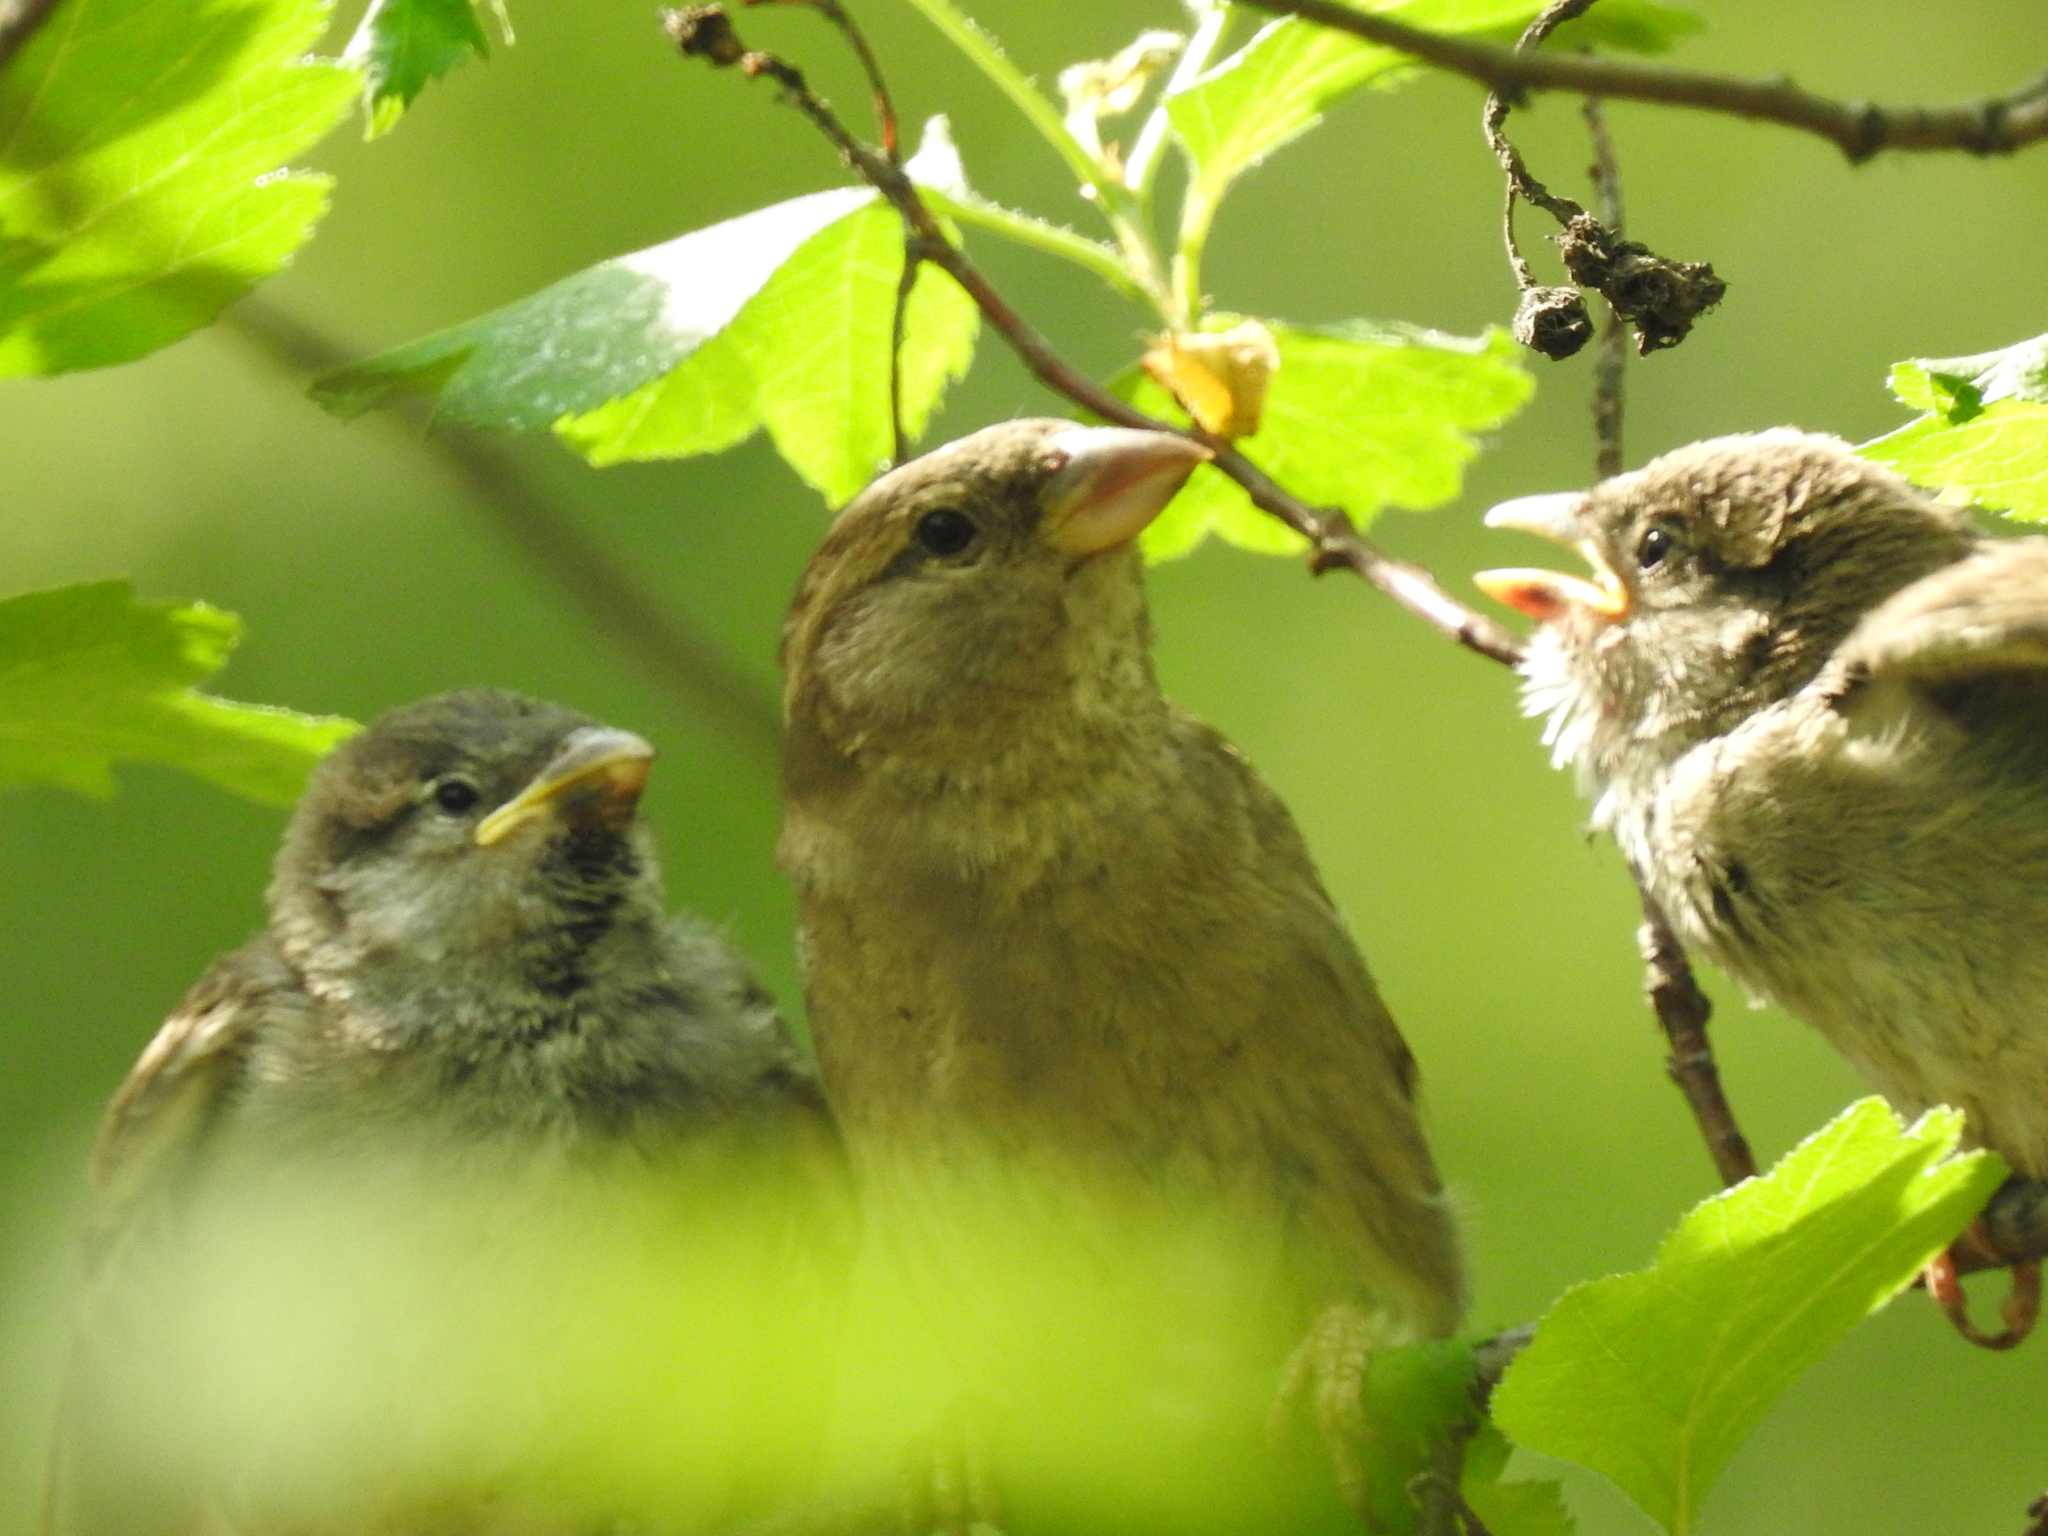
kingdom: Animalia
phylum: Chordata
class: Aves
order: Passeriformes
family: Passeridae
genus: Passer
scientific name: Passer domesticus
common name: House sparrow
